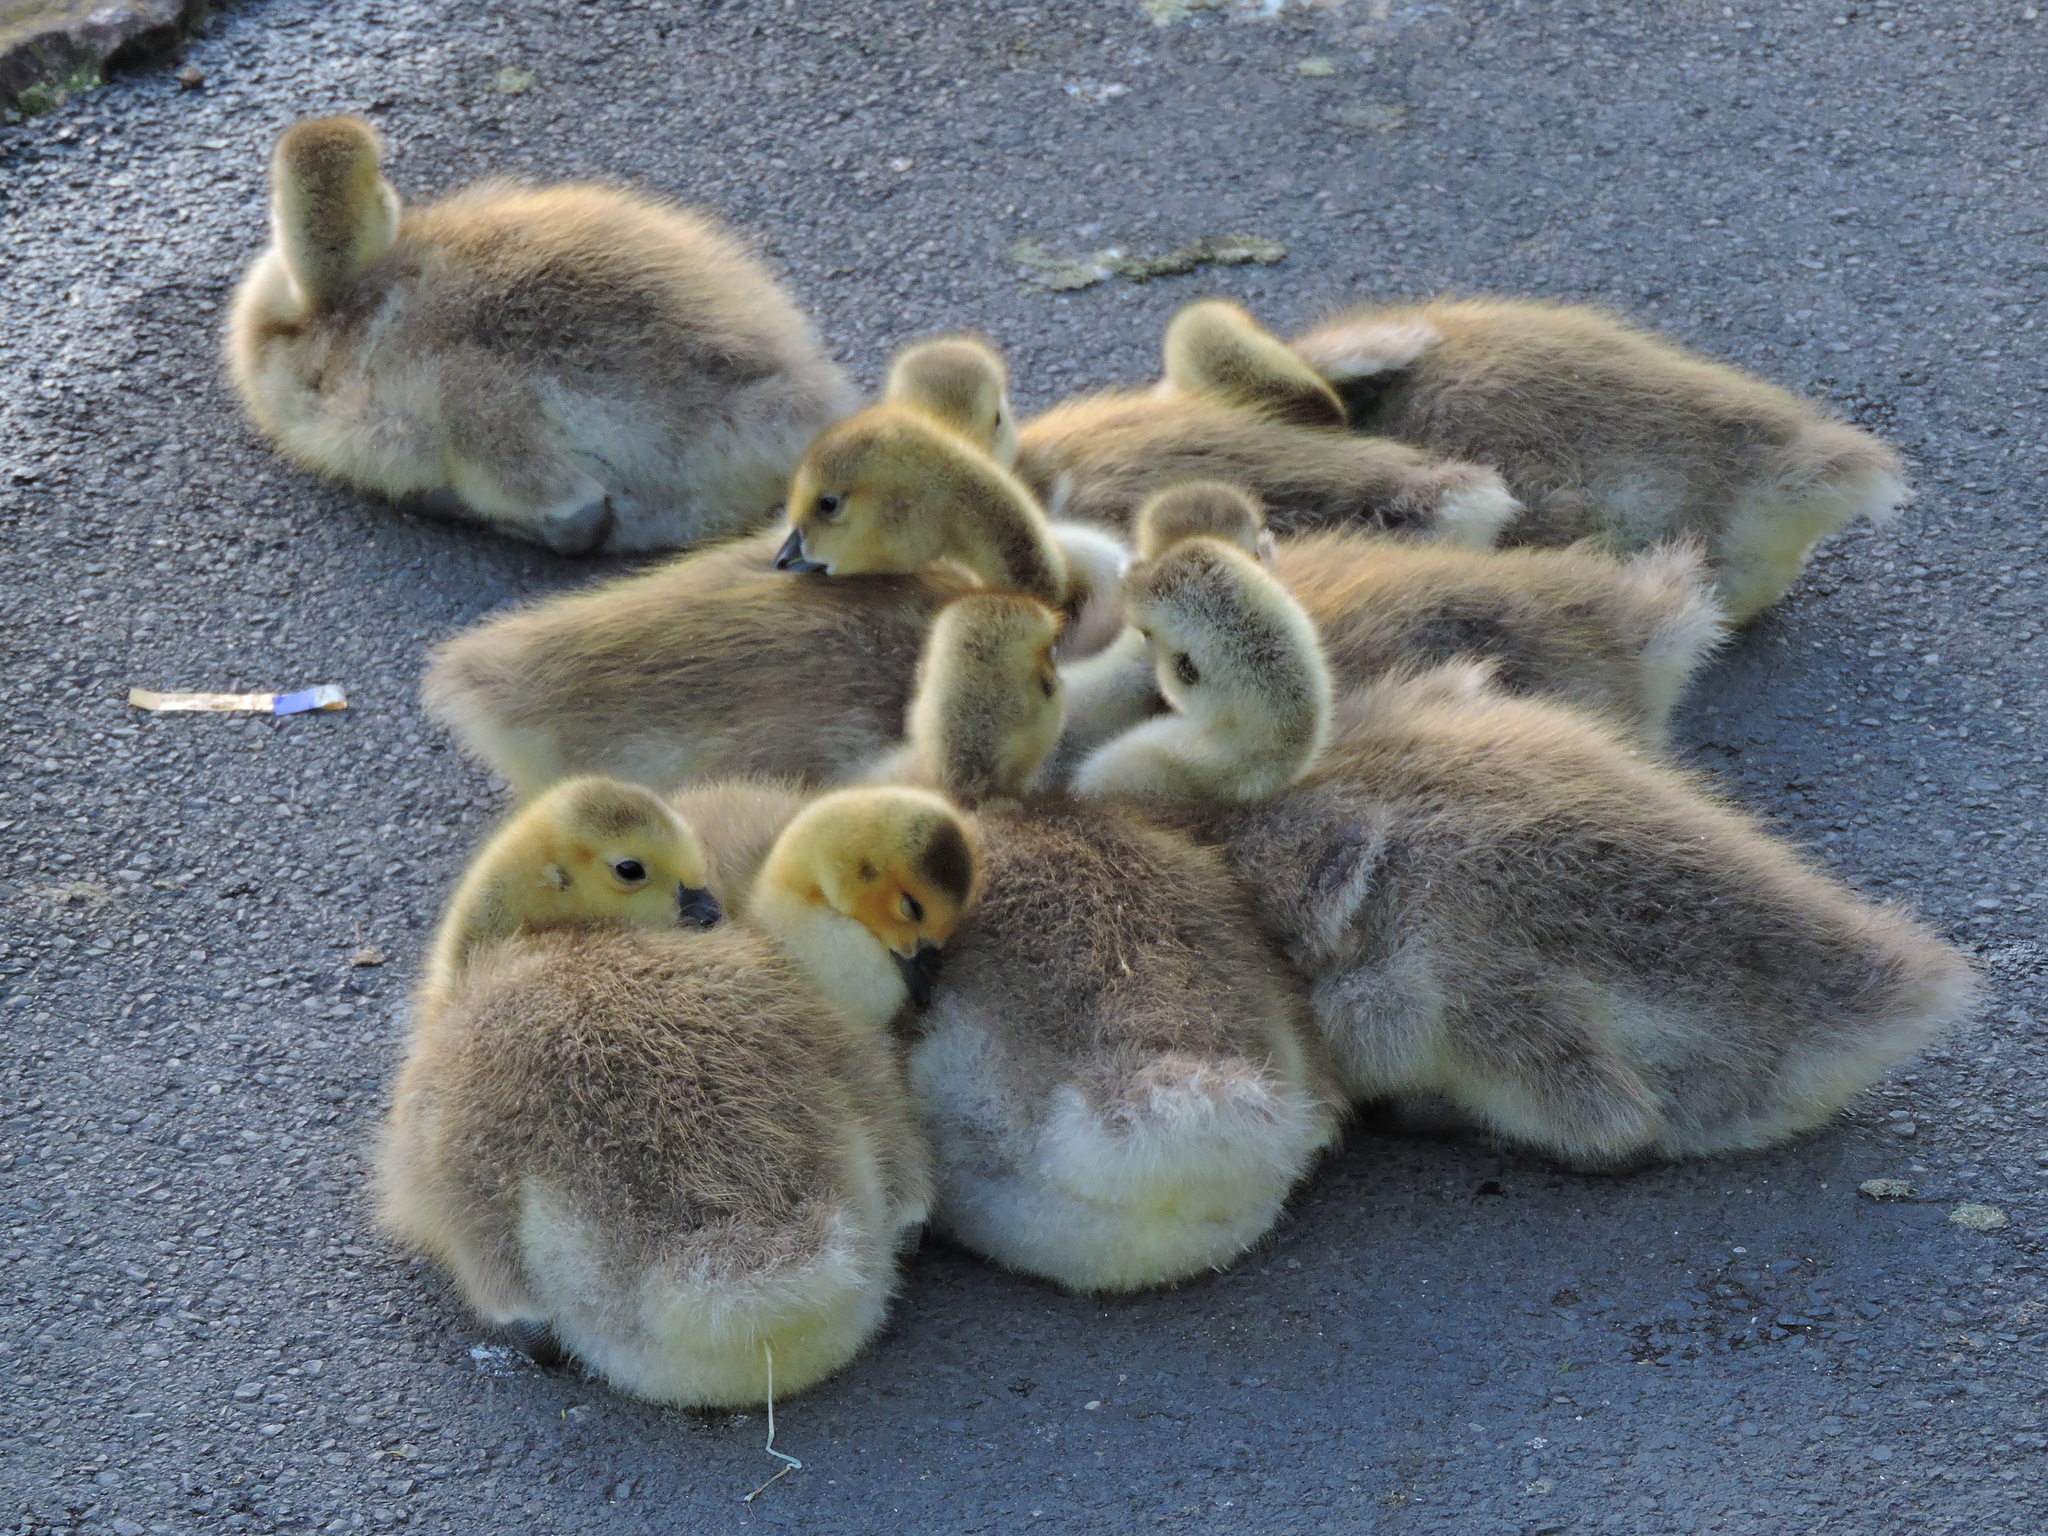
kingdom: Animalia
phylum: Chordata
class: Aves
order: Anseriformes
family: Anatidae
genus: Branta
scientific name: Branta canadensis
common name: Canada goose
